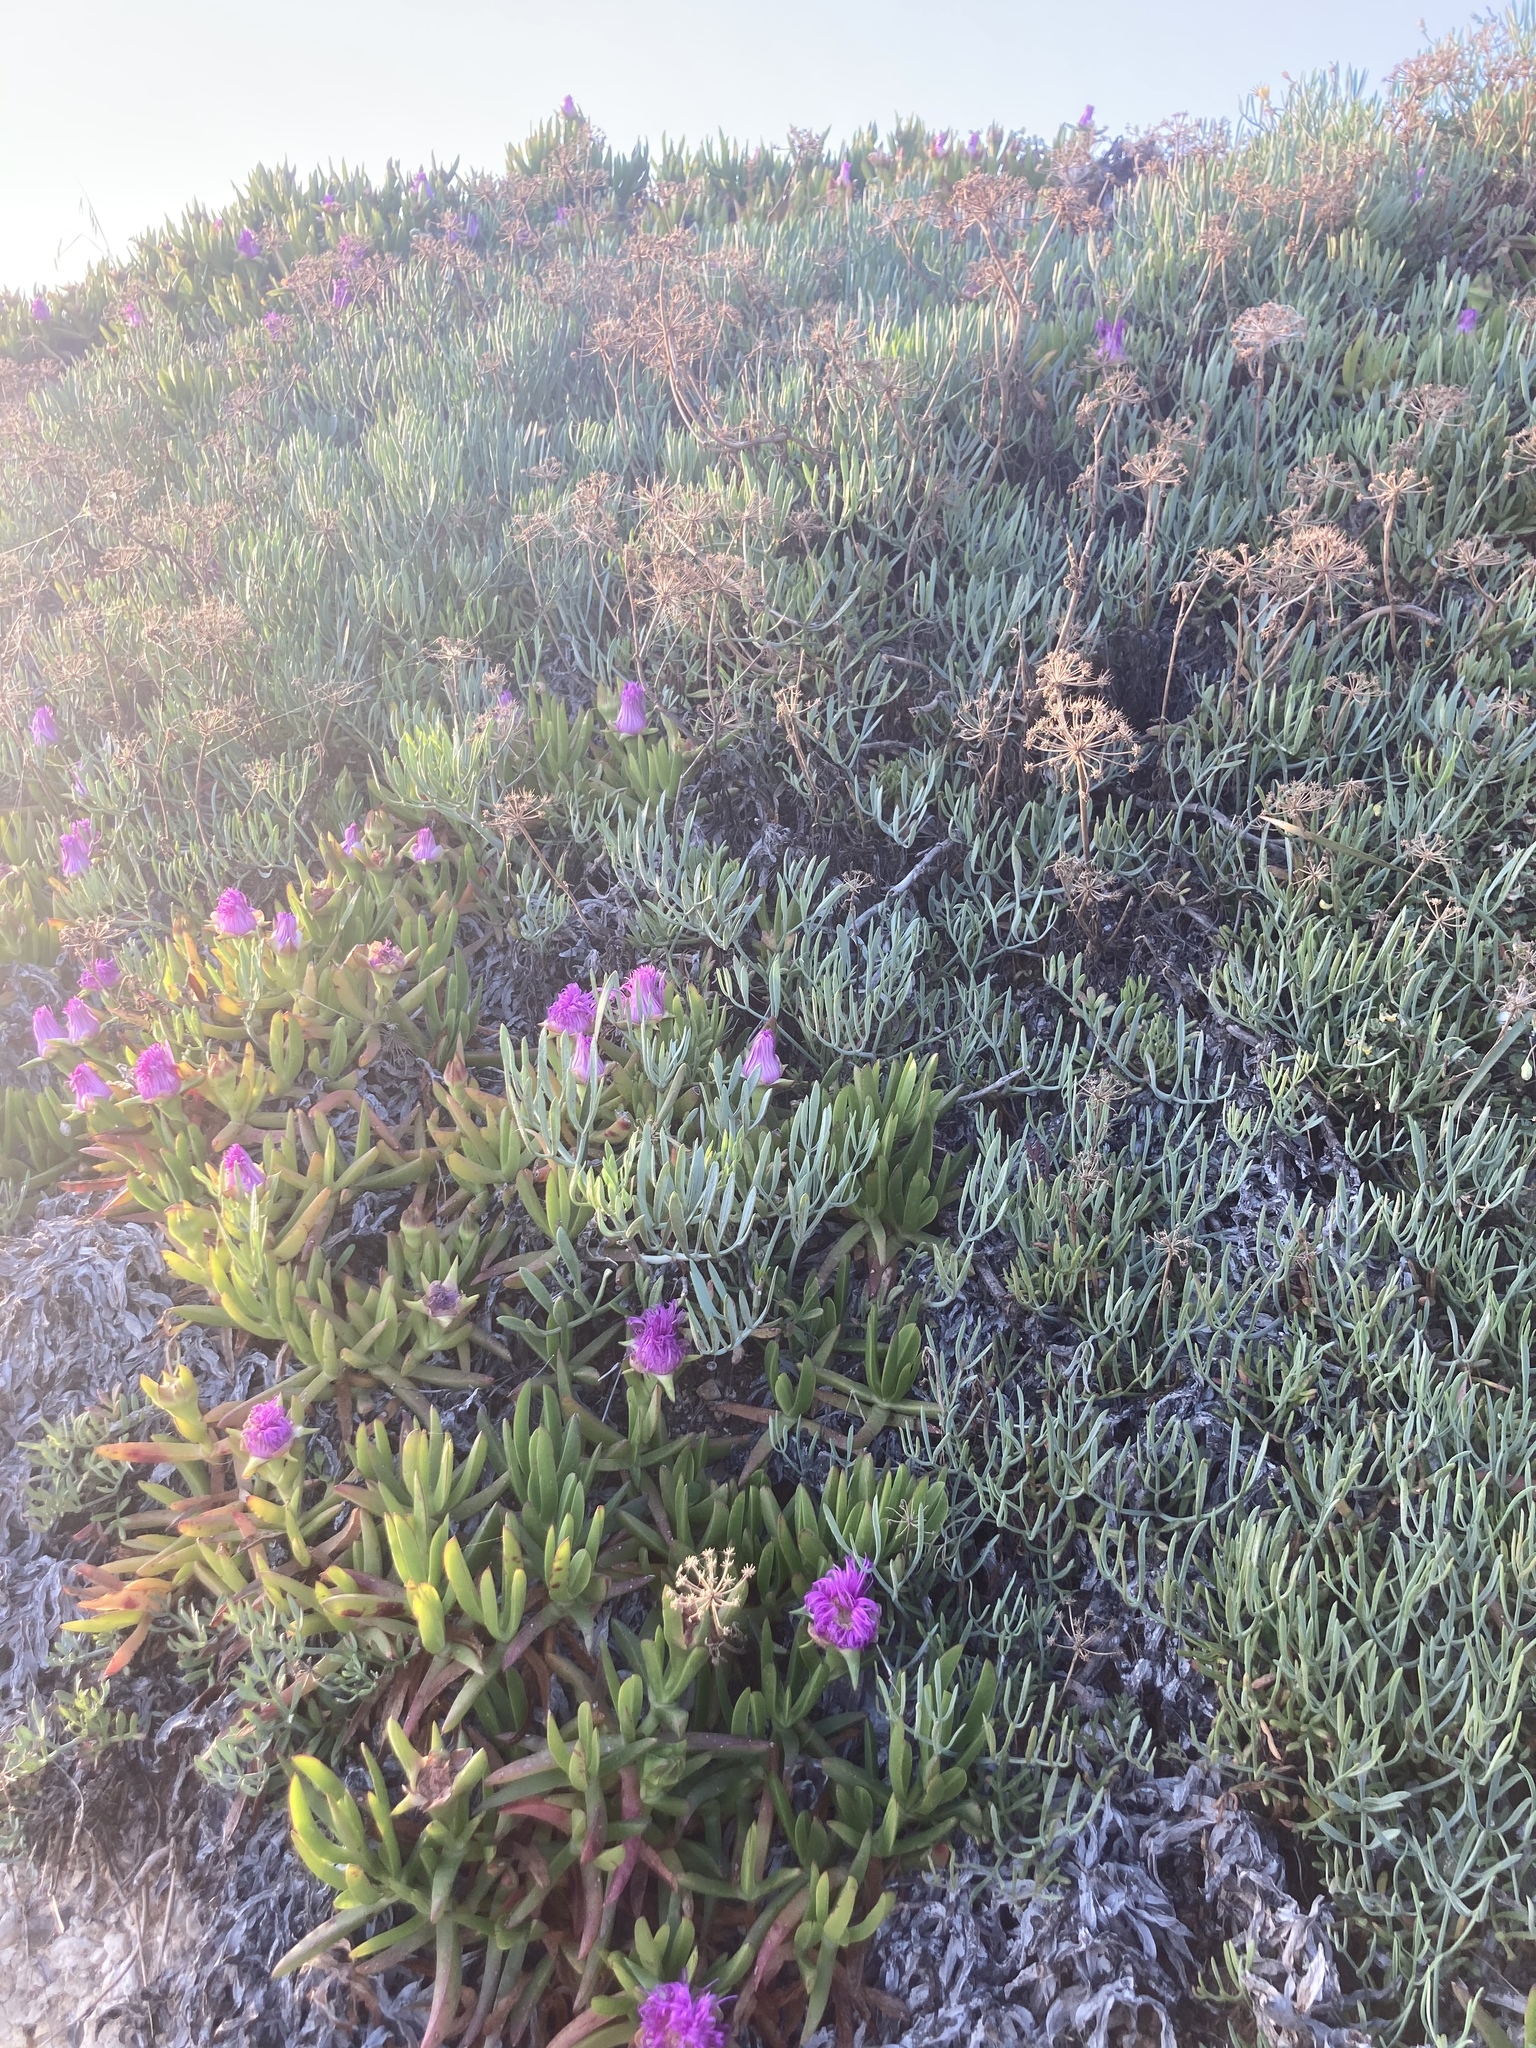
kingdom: Plantae
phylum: Tracheophyta
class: Magnoliopsida
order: Caryophyllales
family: Aizoaceae
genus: Carpobrotus
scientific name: Carpobrotus acinaciformis
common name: Sally-my-handsome
